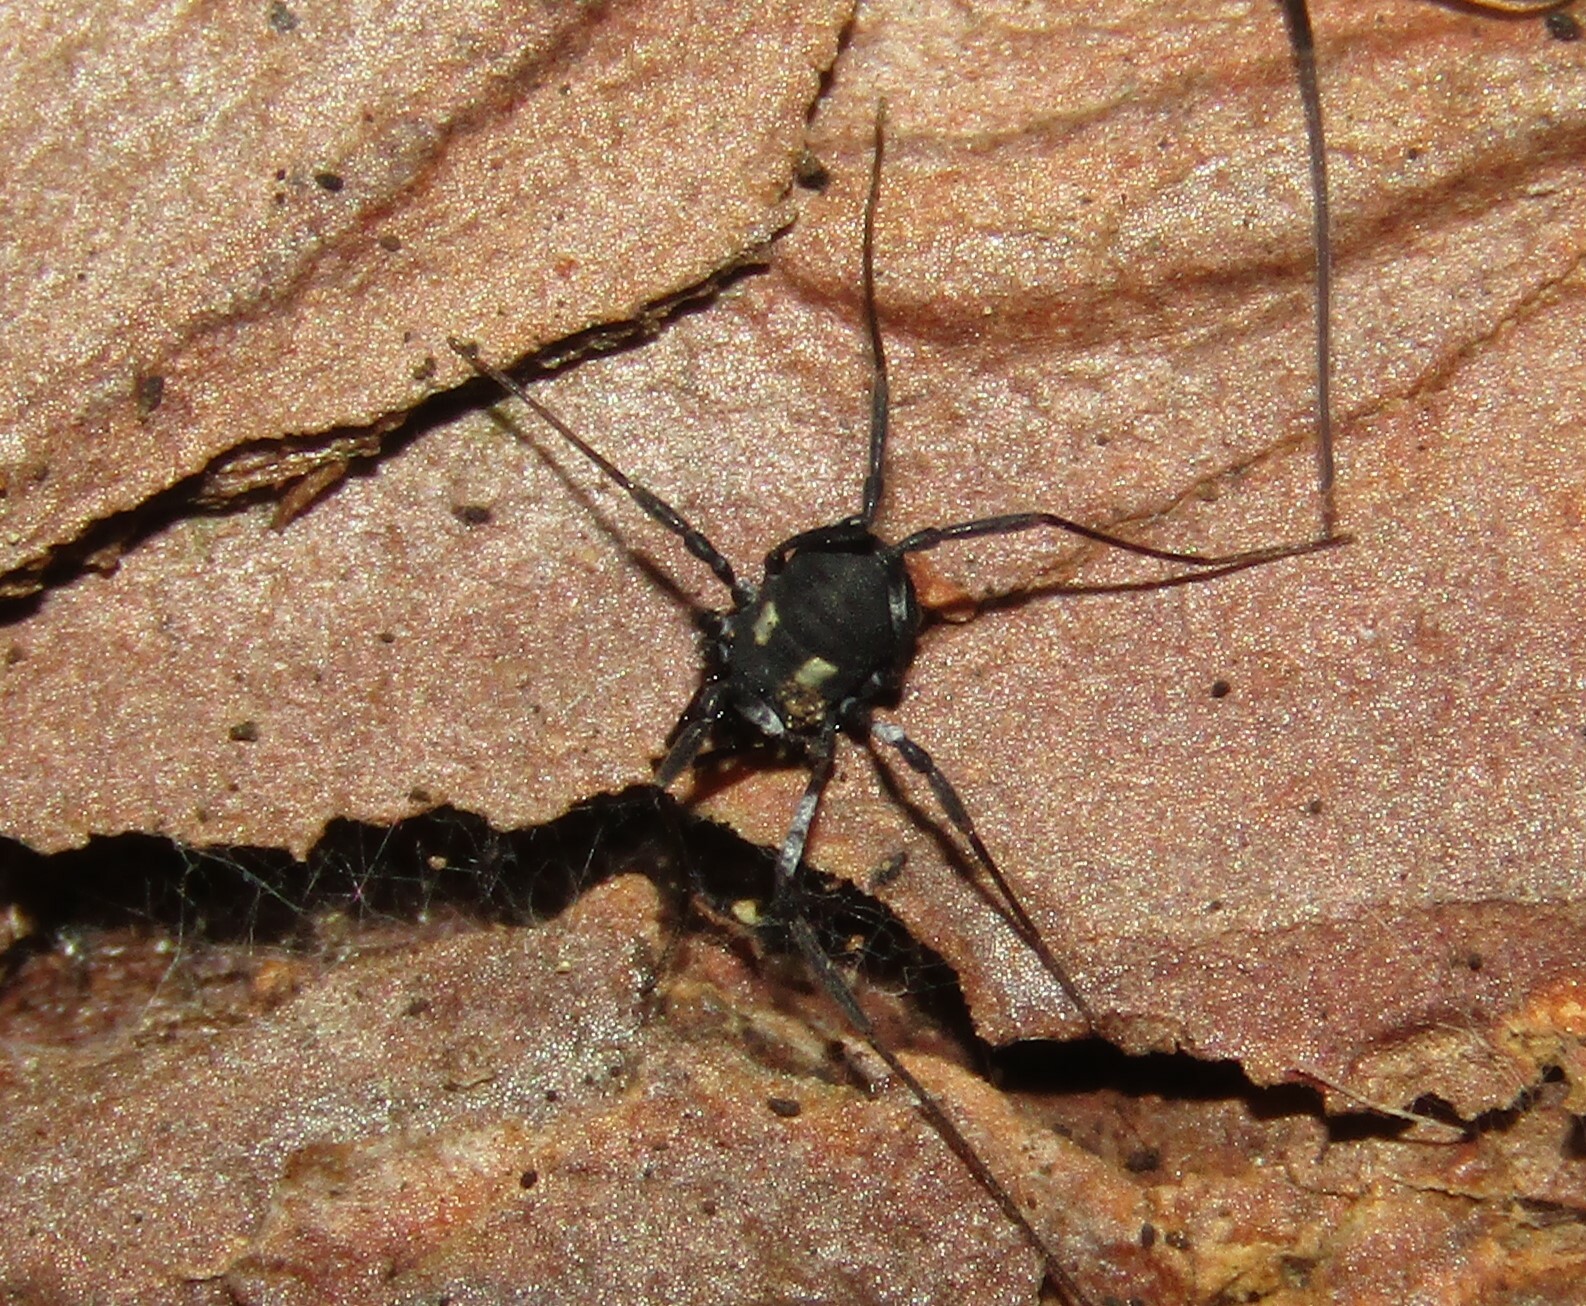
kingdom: Animalia
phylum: Arthropoda
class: Arachnida
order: Opiliones
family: Nemastomatidae
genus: Nemastoma
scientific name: Nemastoma lugubre
